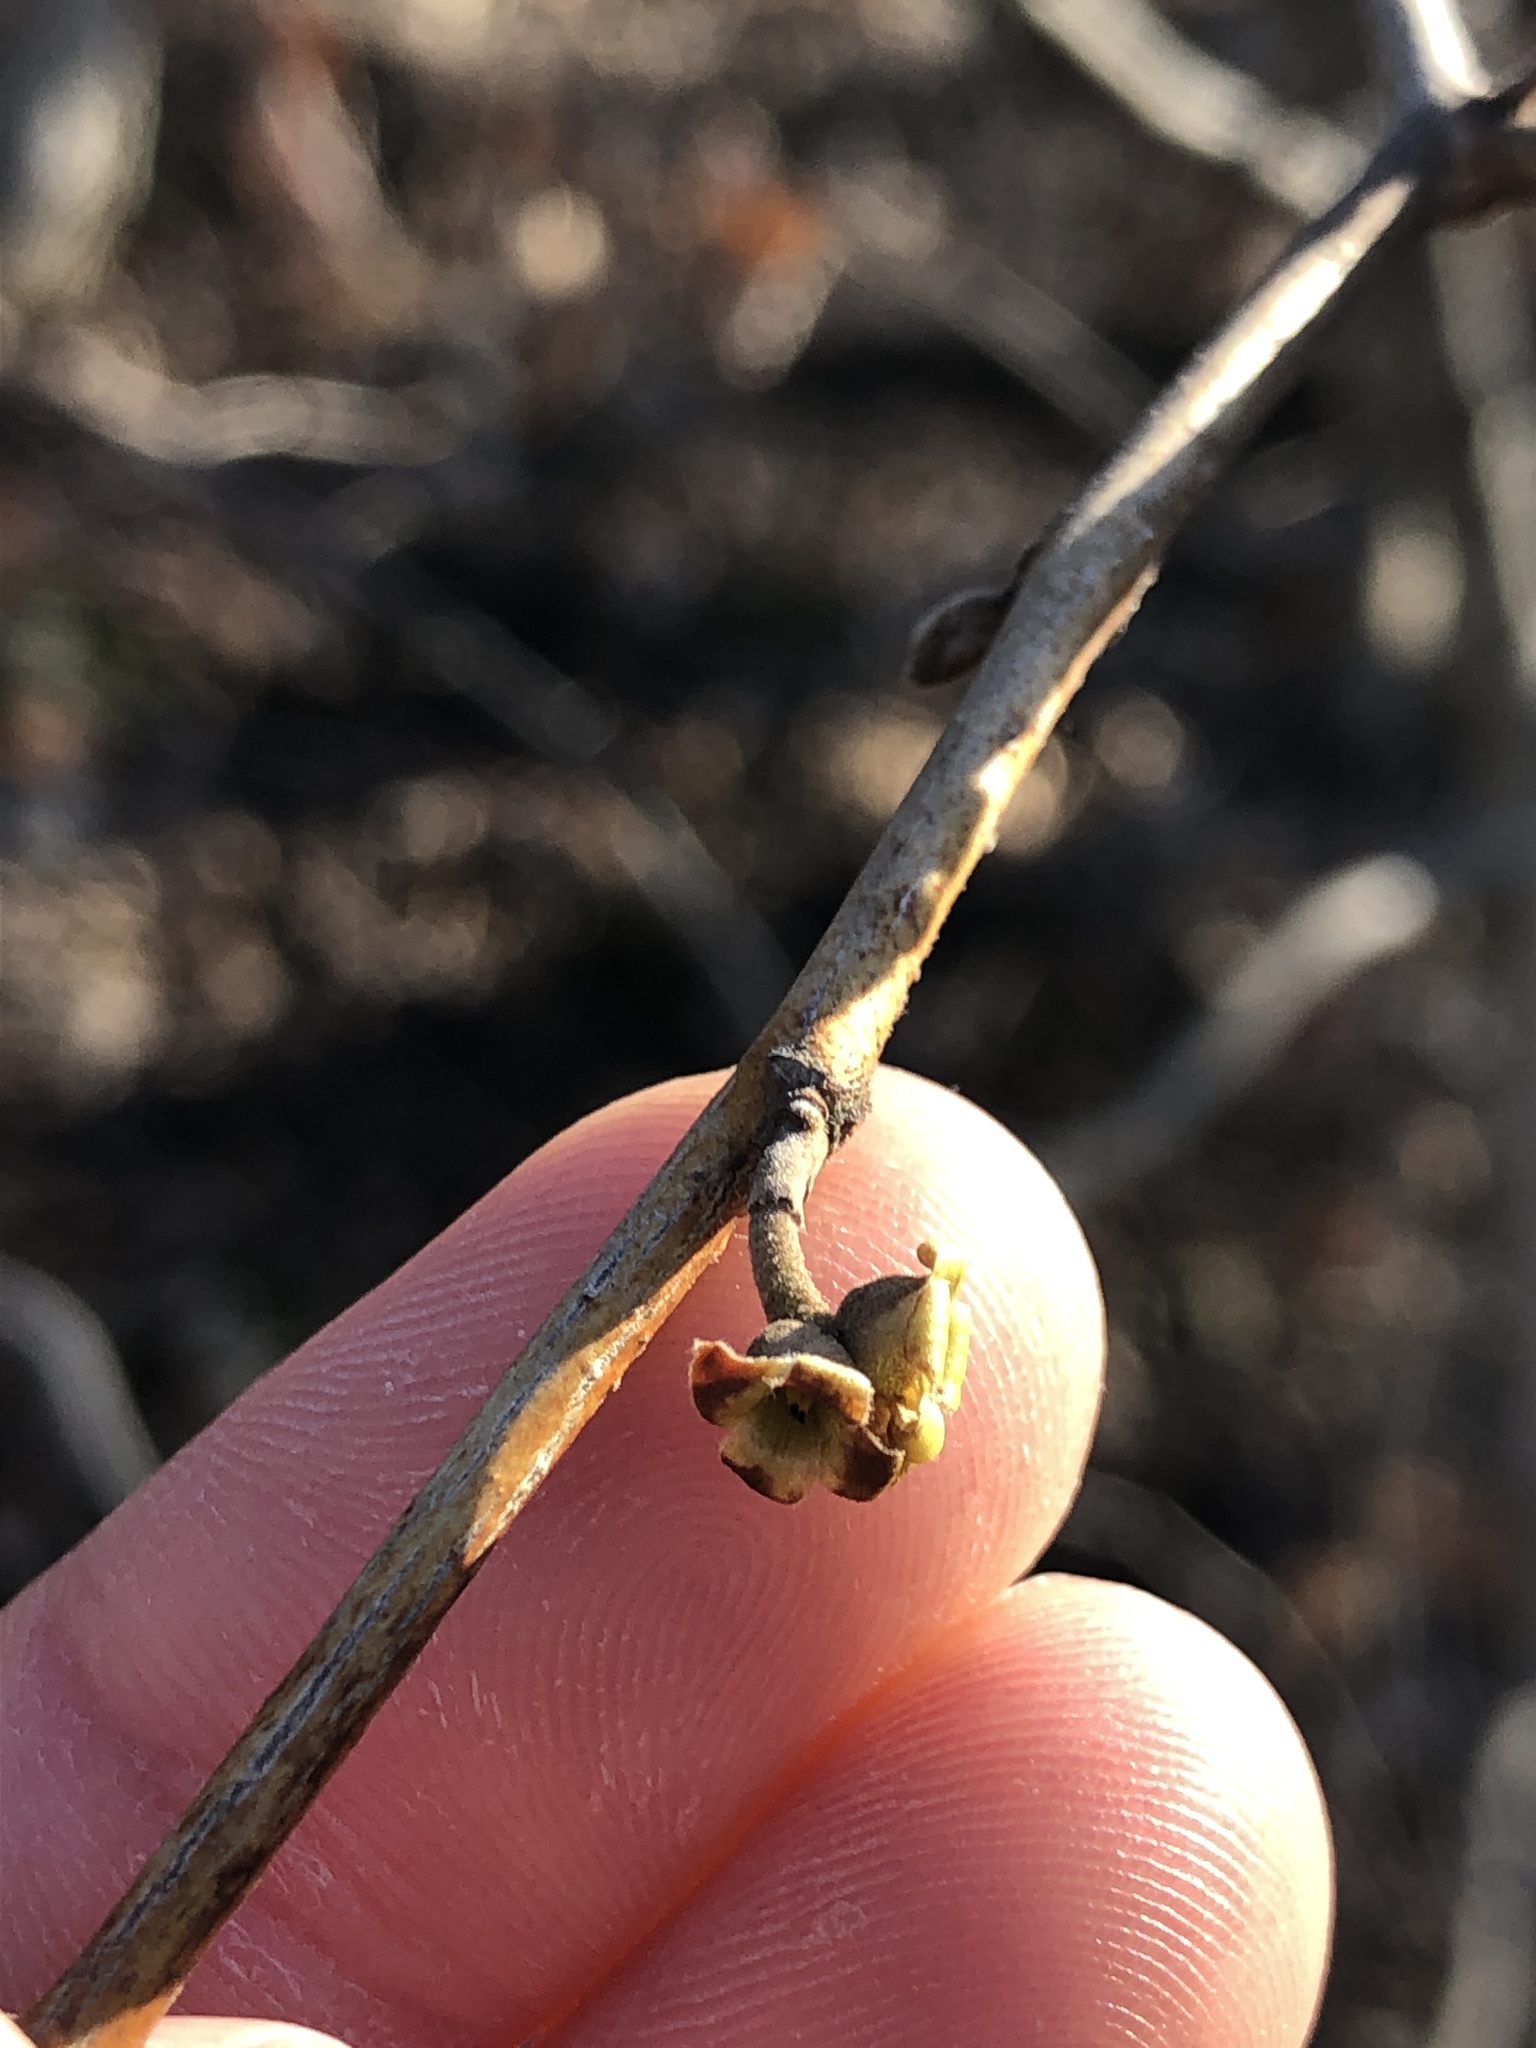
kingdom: Plantae
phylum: Tracheophyta
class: Magnoliopsida
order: Saxifragales
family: Hamamelidaceae
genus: Hamamelis
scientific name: Hamamelis virginiana
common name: Witch-hazel
